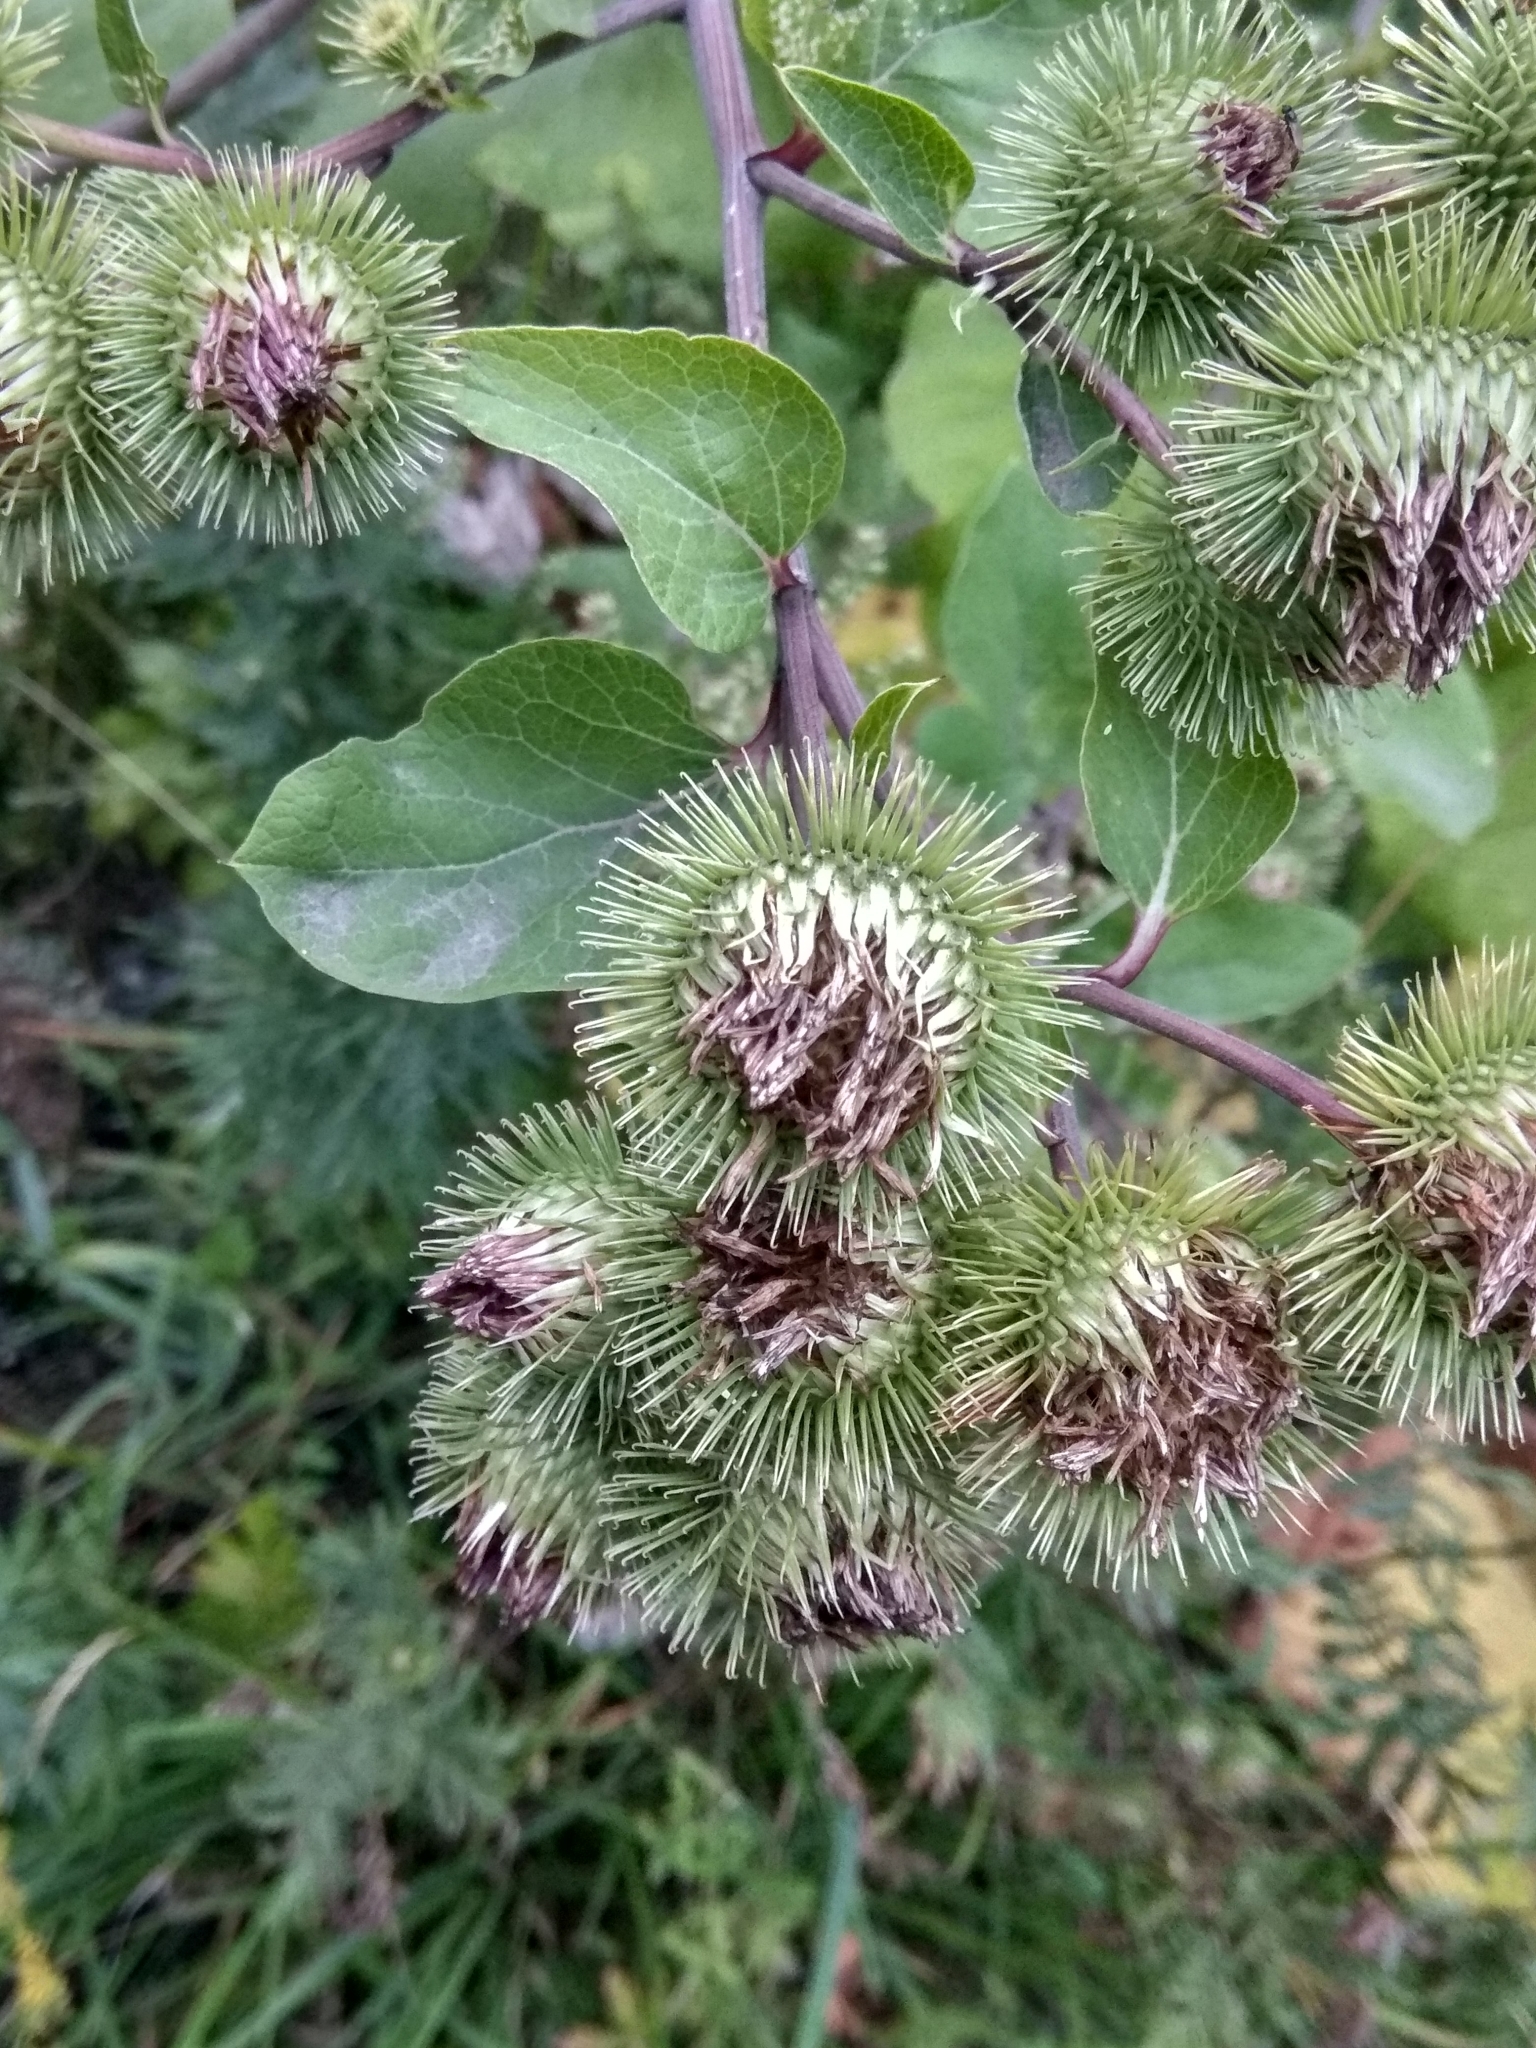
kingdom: Plantae
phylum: Tracheophyta
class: Magnoliopsida
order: Asterales
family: Asteraceae
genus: Arctium
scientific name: Arctium lappa
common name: Greater burdock
